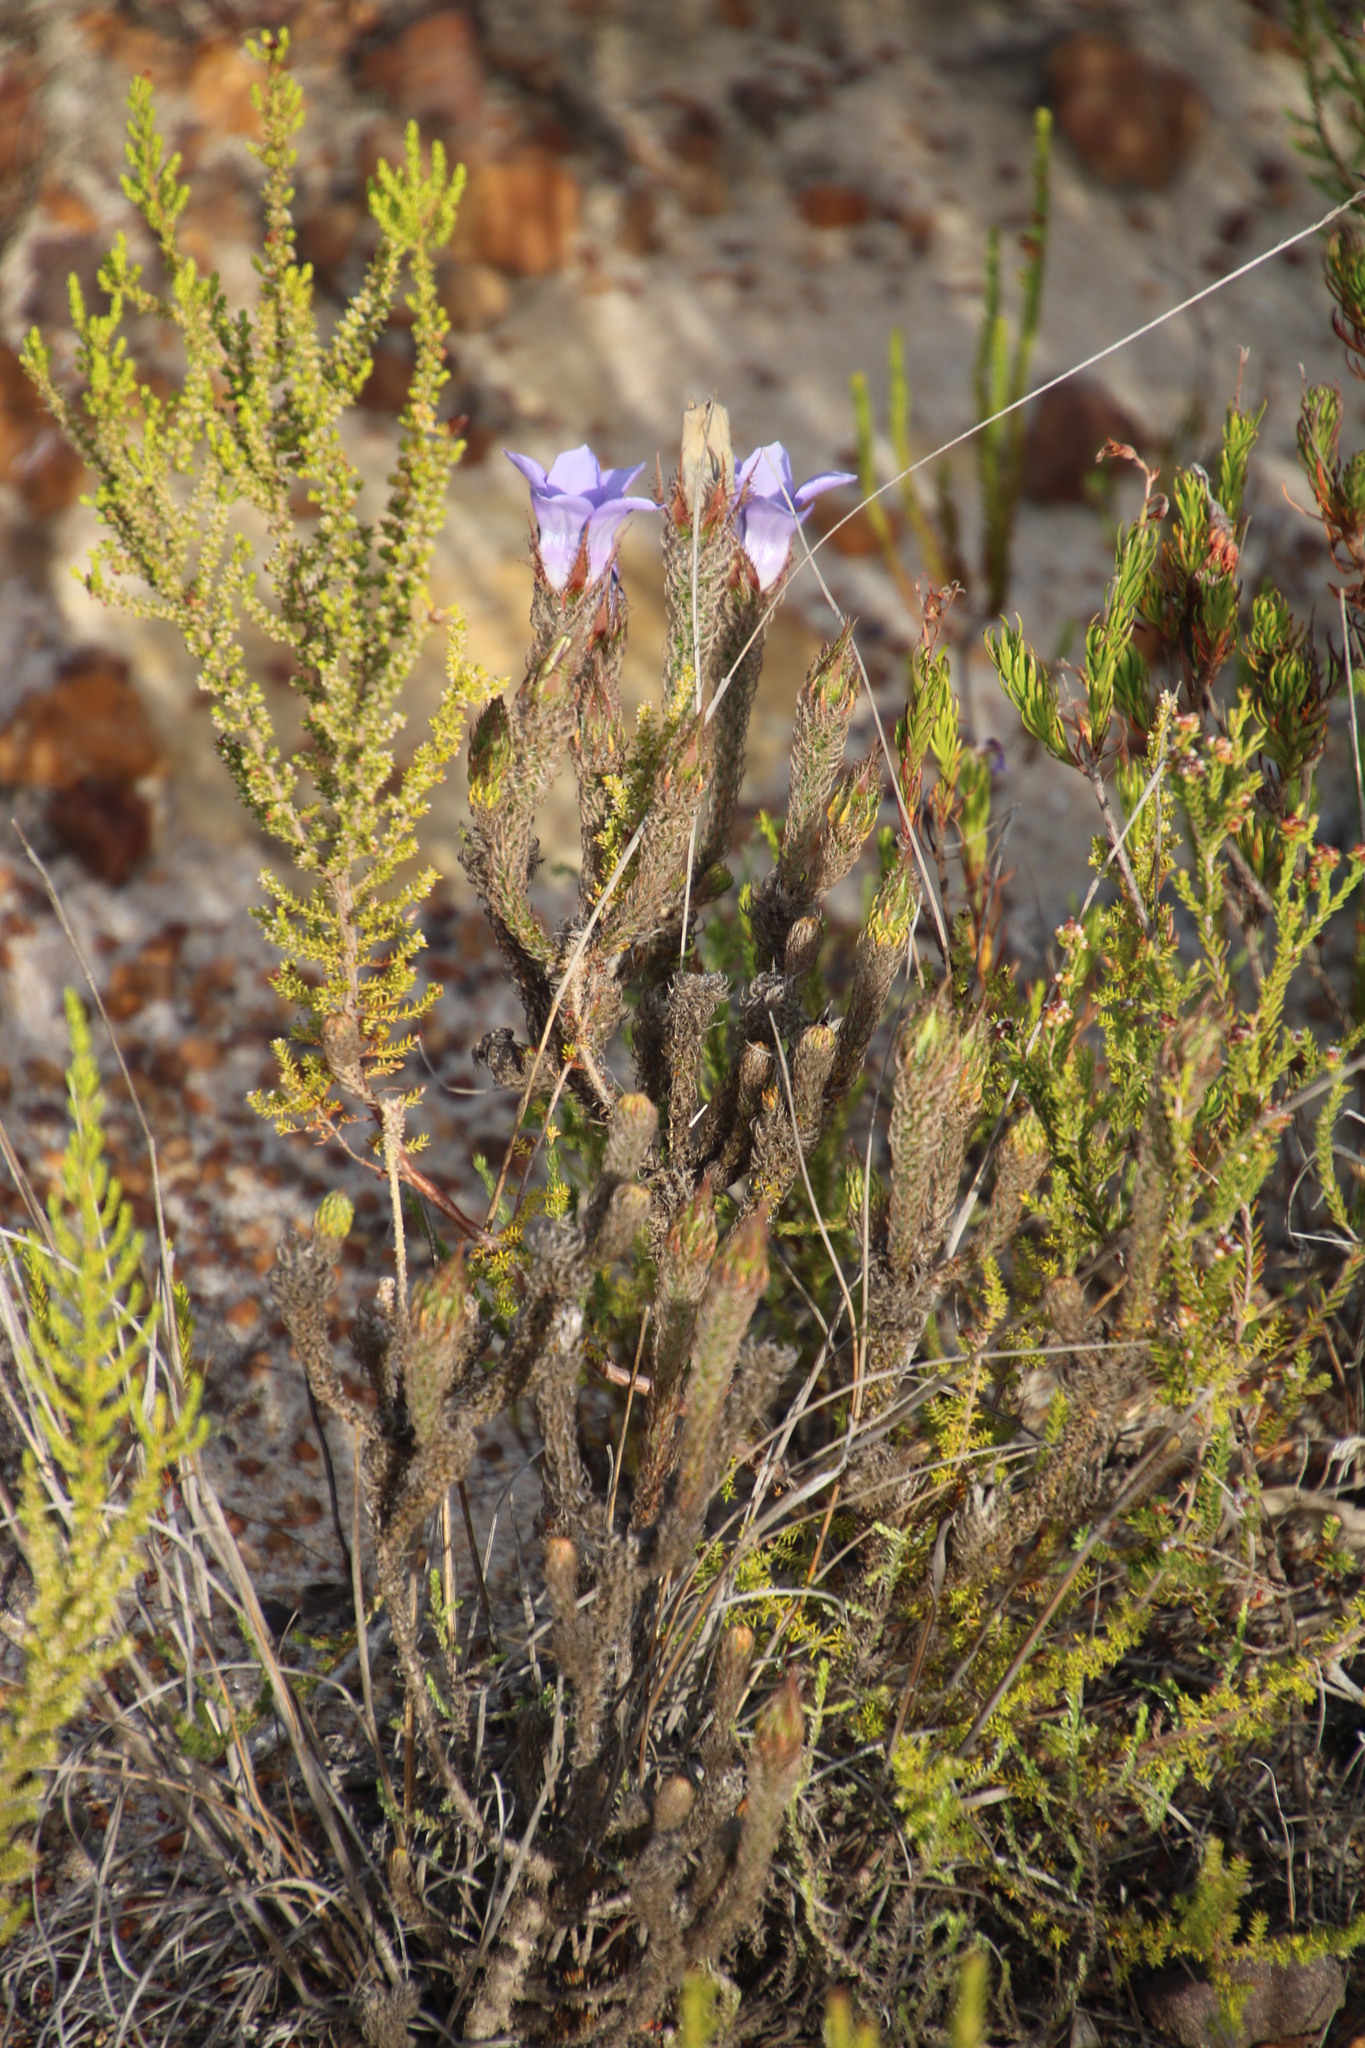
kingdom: Plantae
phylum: Tracheophyta
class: Magnoliopsida
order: Asterales
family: Campanulaceae
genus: Roella
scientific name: Roella ciliata
